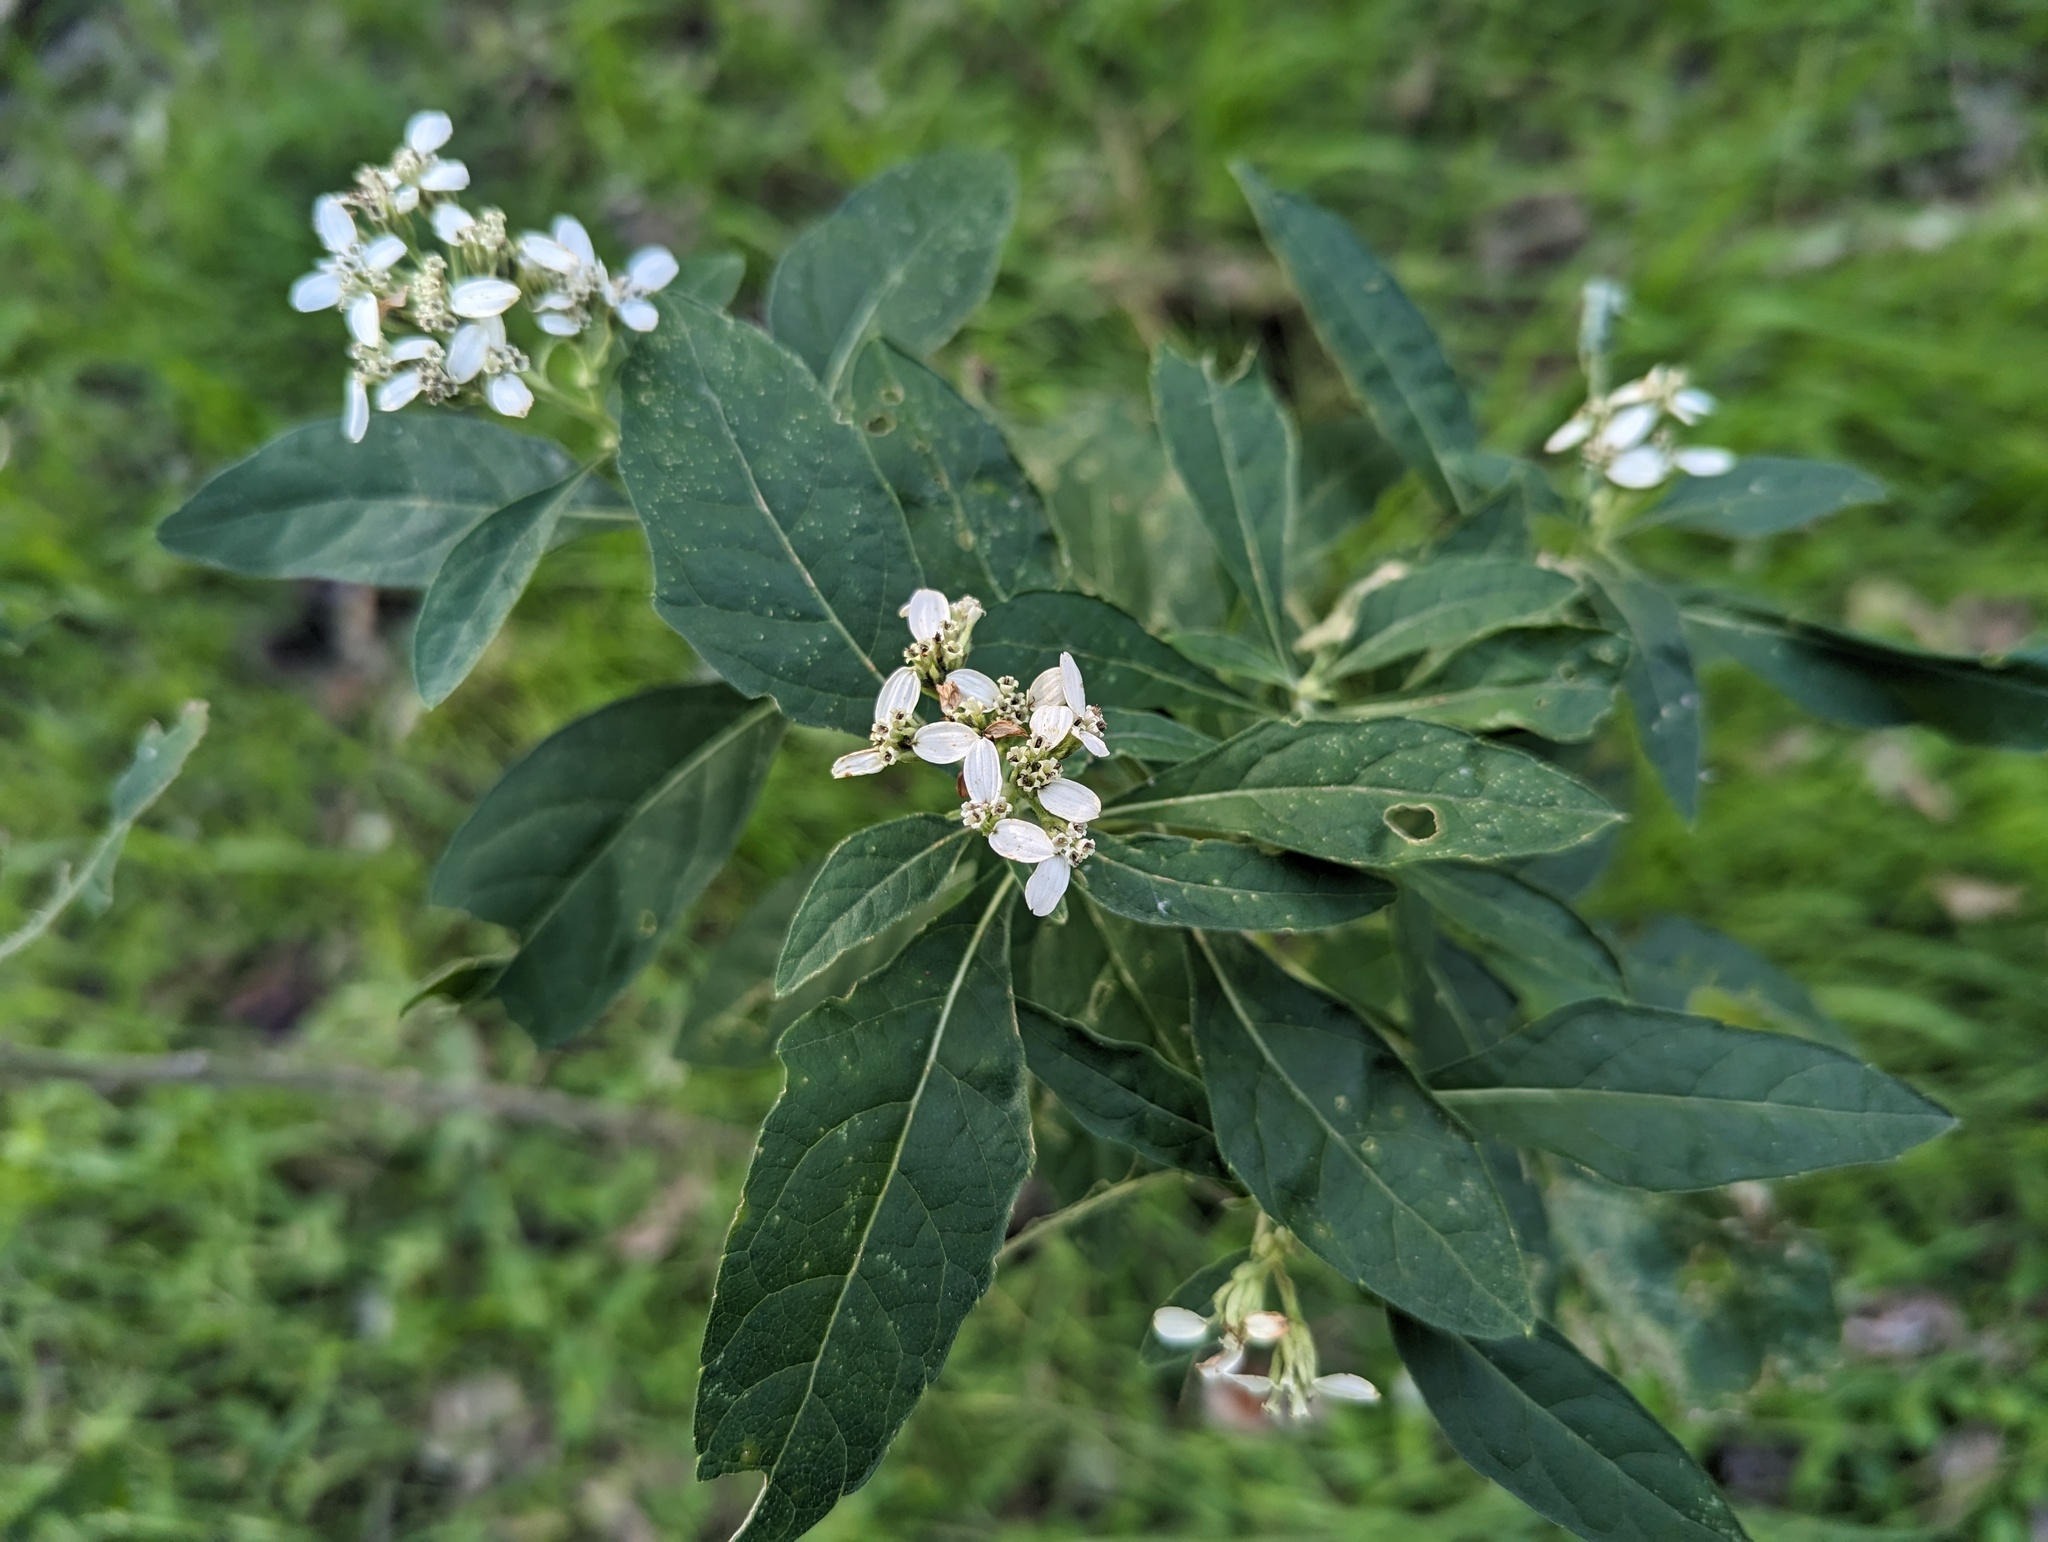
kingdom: Plantae
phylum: Tracheophyta
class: Magnoliopsida
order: Asterales
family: Asteraceae
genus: Verbesina
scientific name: Verbesina virginica
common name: Frostweed
